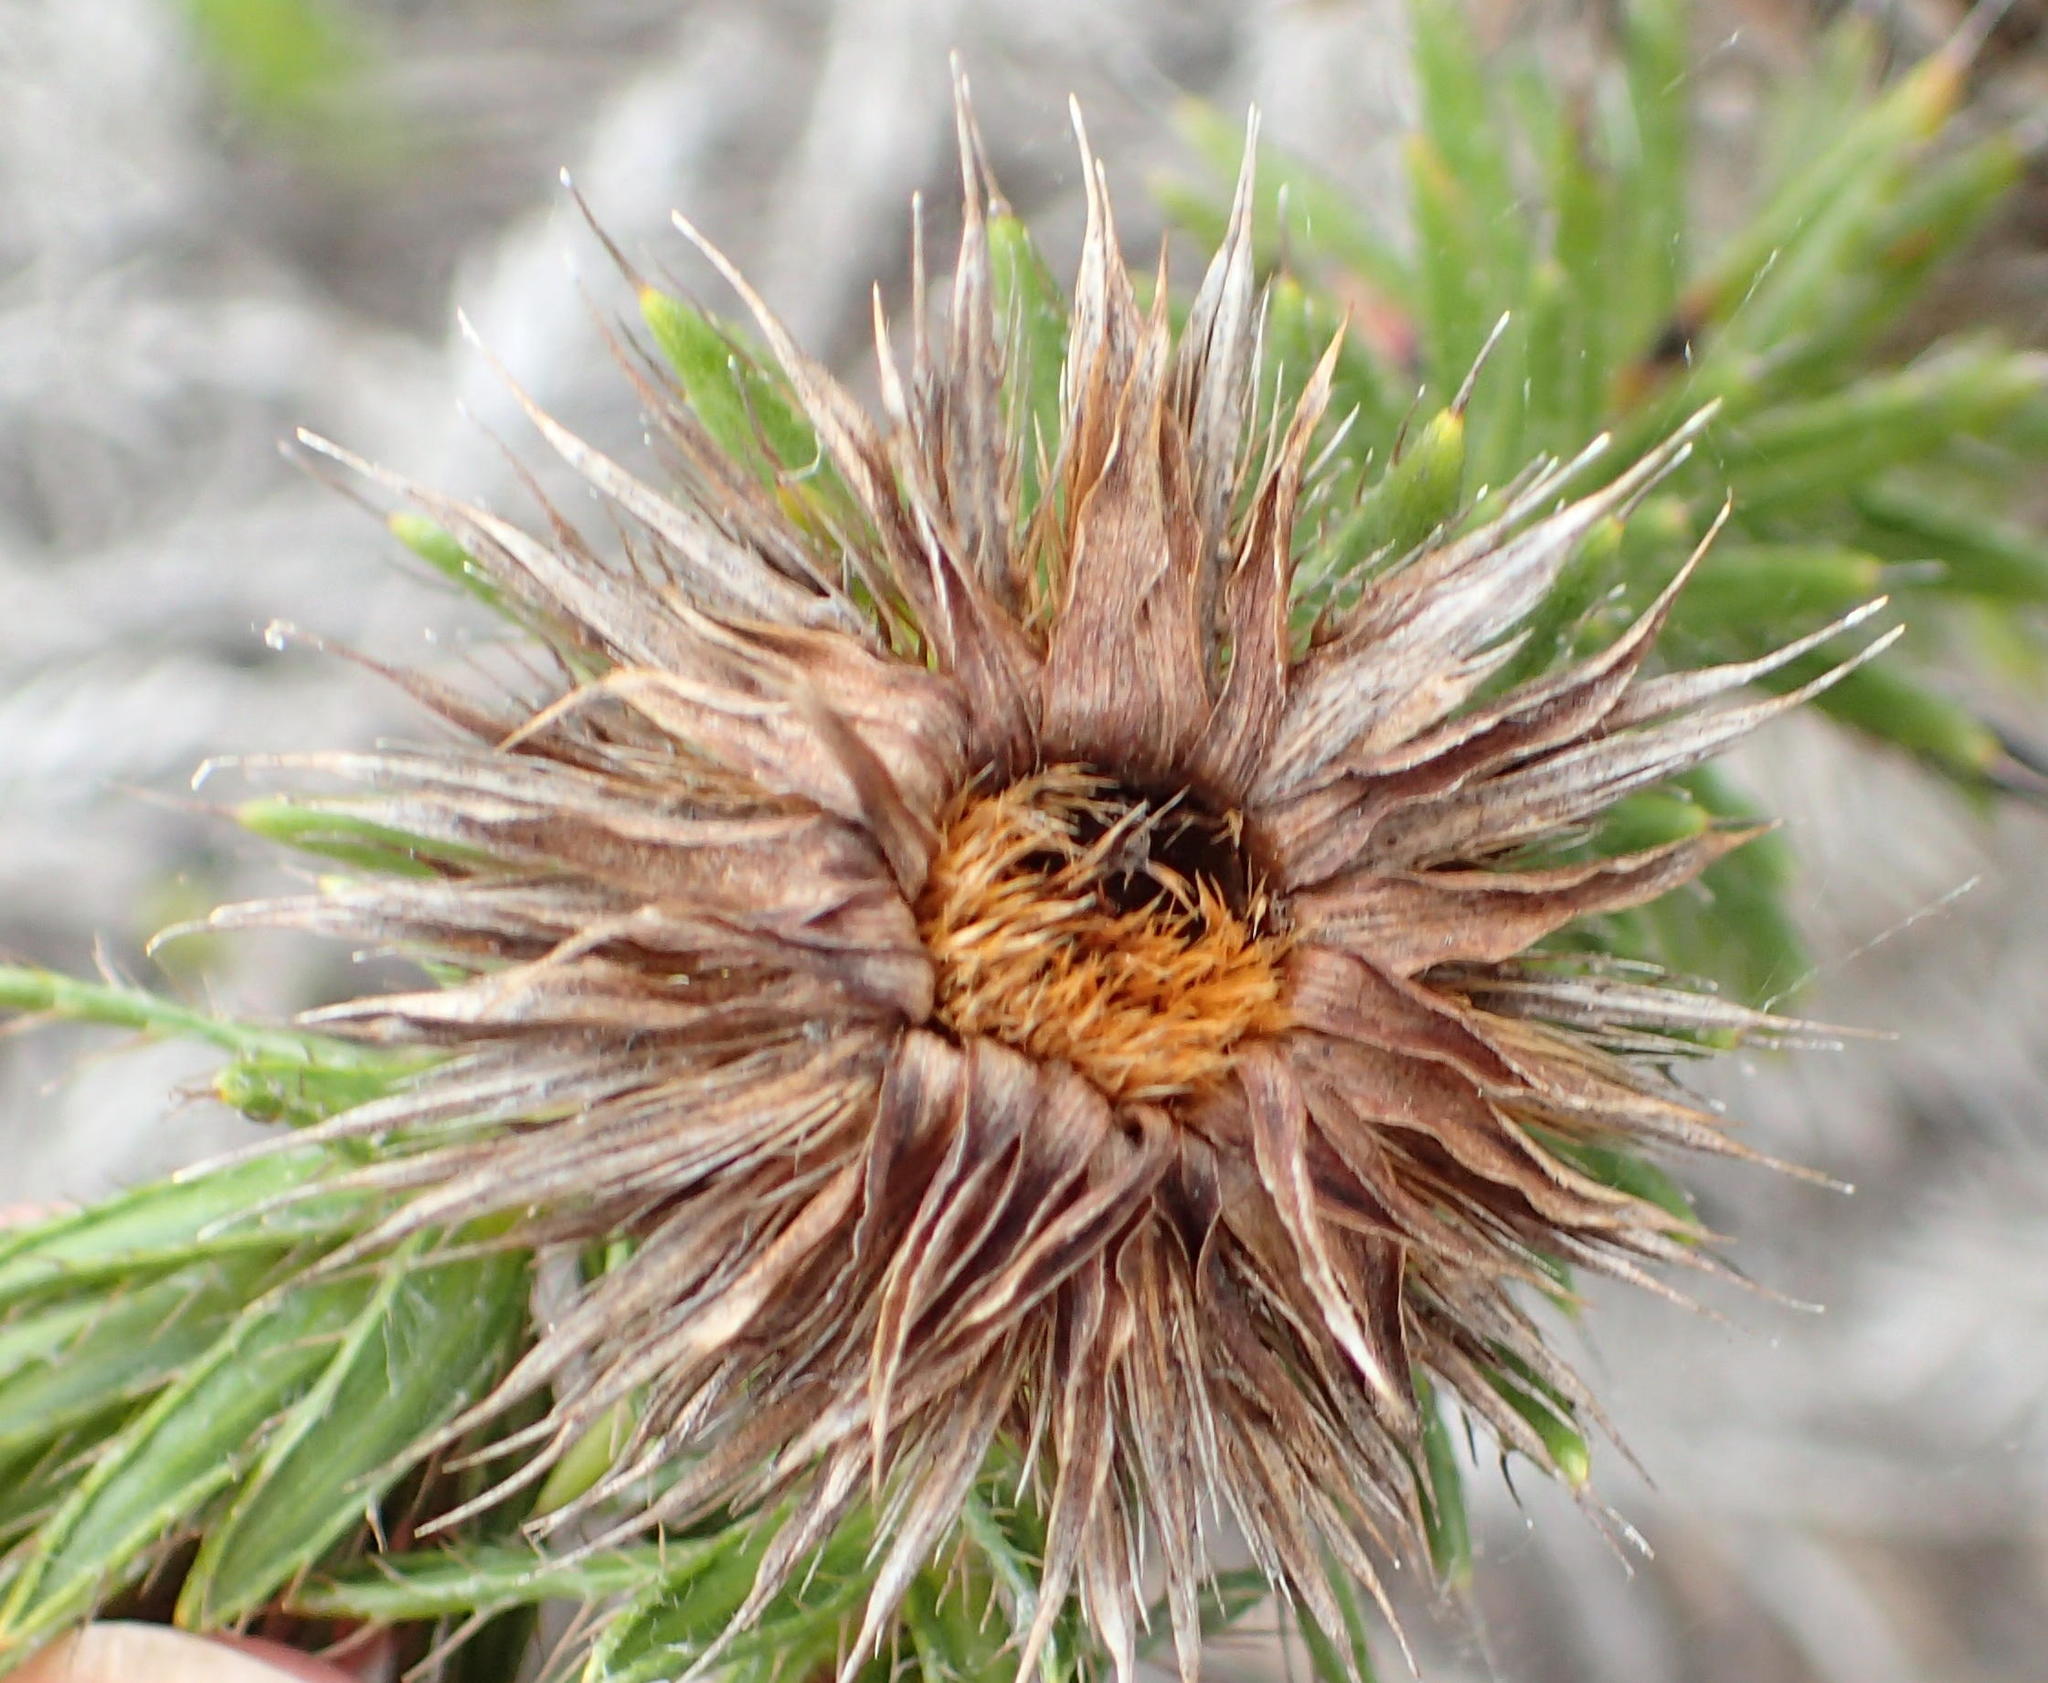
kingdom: Plantae
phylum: Tracheophyta
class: Magnoliopsida
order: Asterales
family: Asteraceae
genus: Cullumia
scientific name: Cullumia carlinoides
